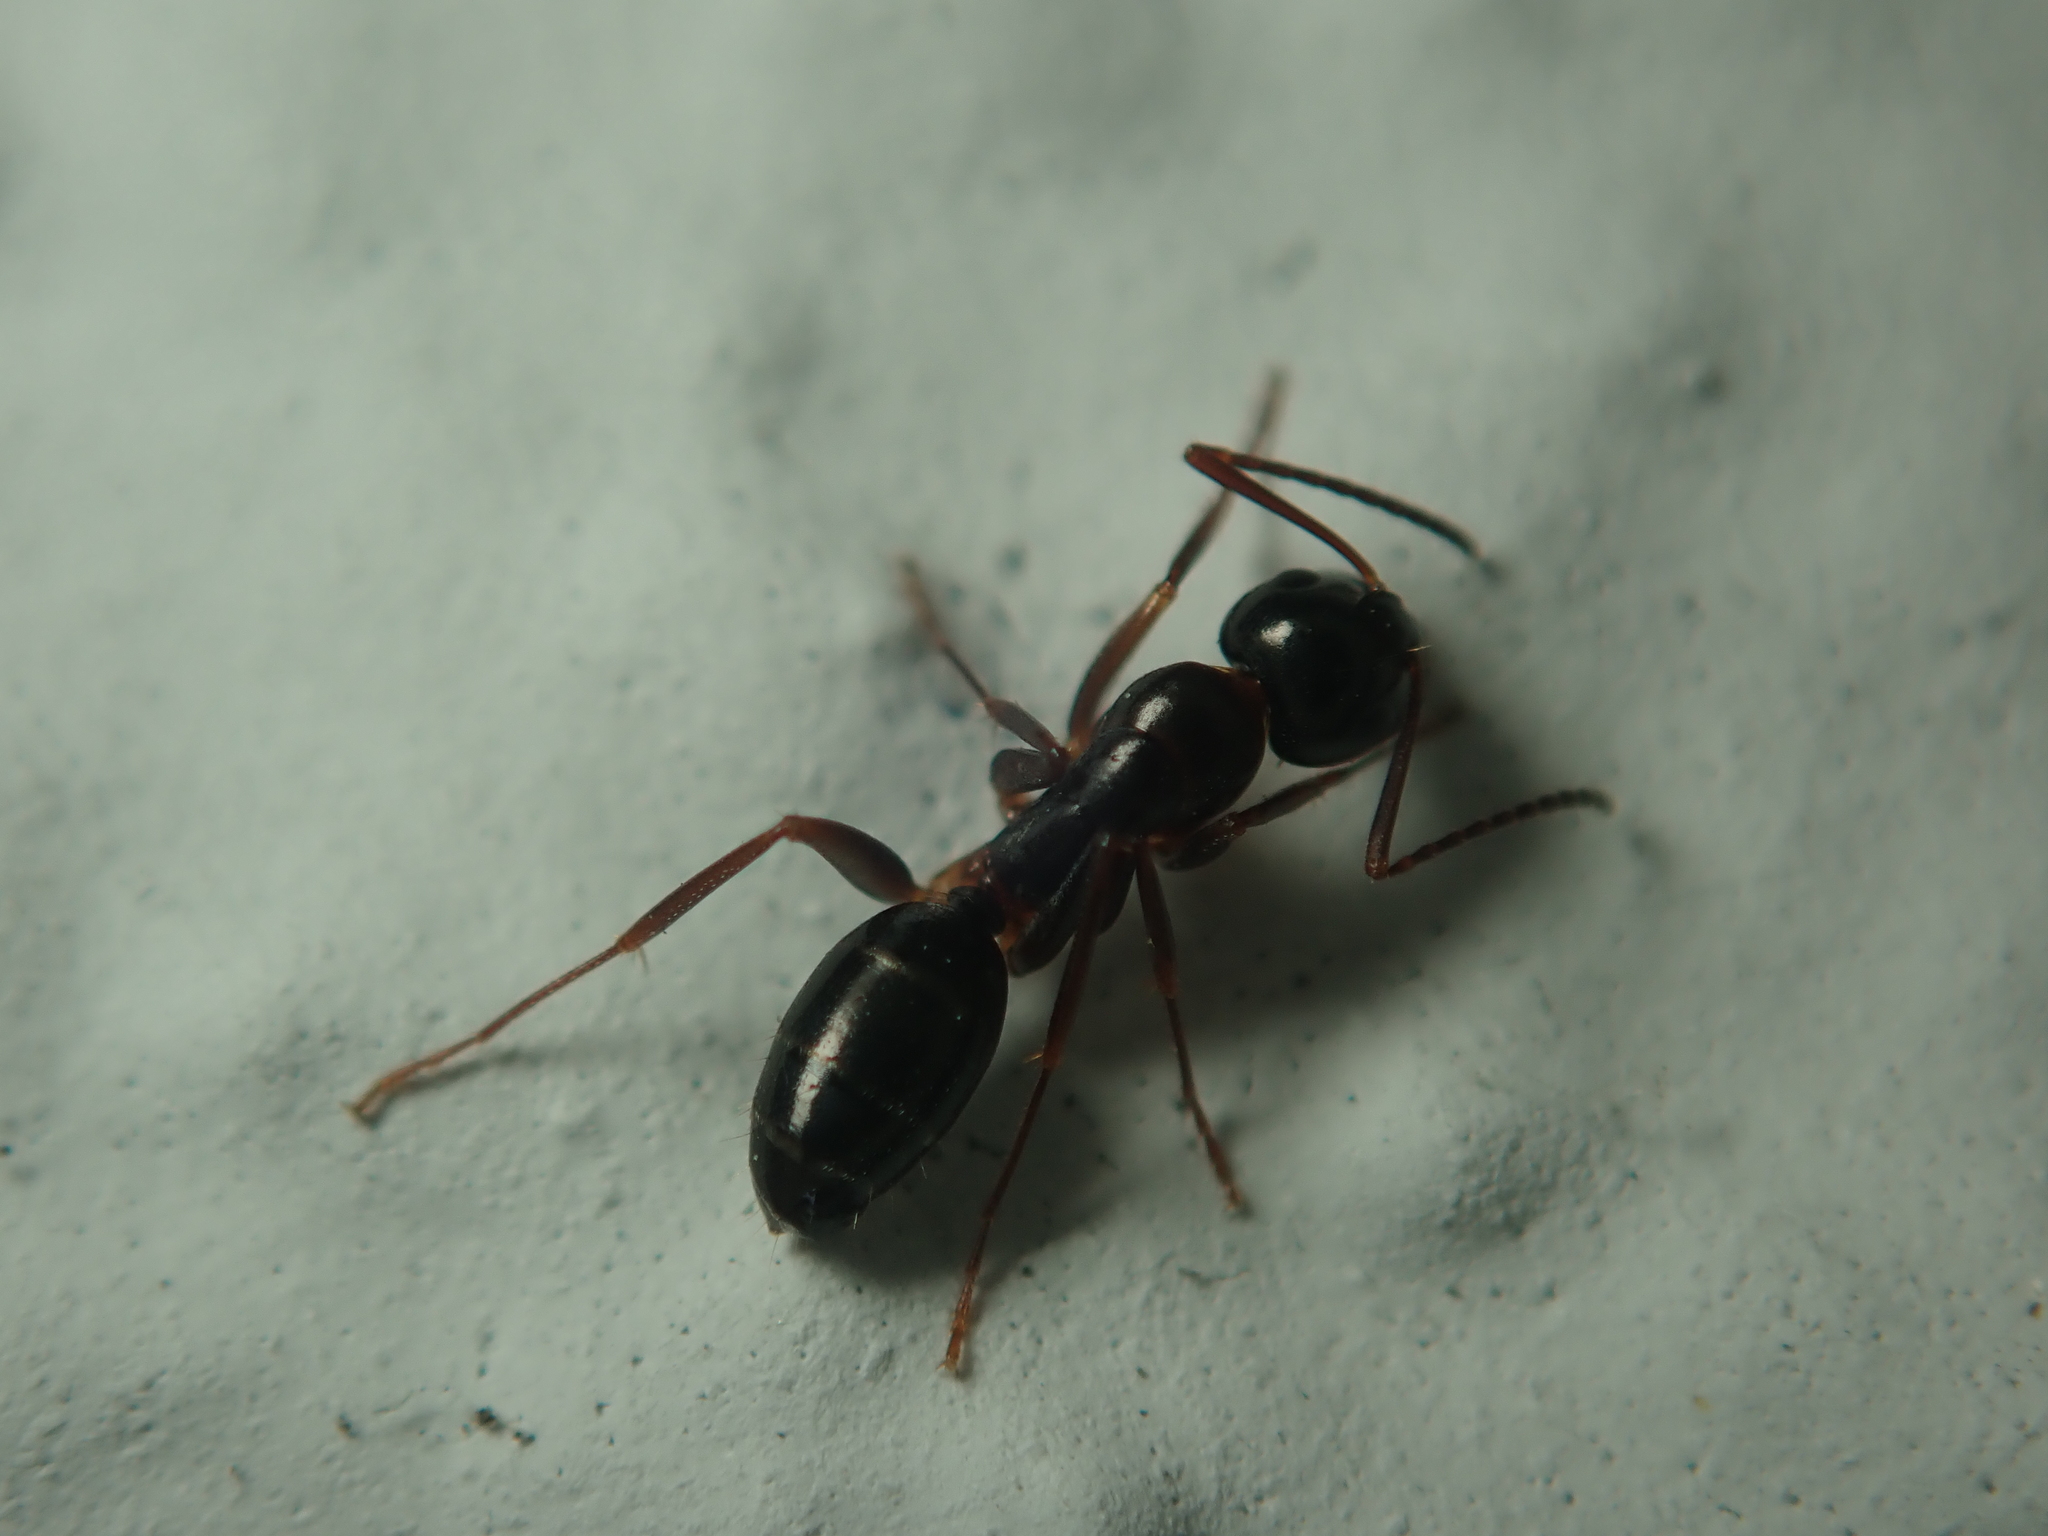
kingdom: Animalia
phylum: Arthropoda
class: Insecta
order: Hymenoptera
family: Formicidae
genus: Camponotus
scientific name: Camponotus fallax
